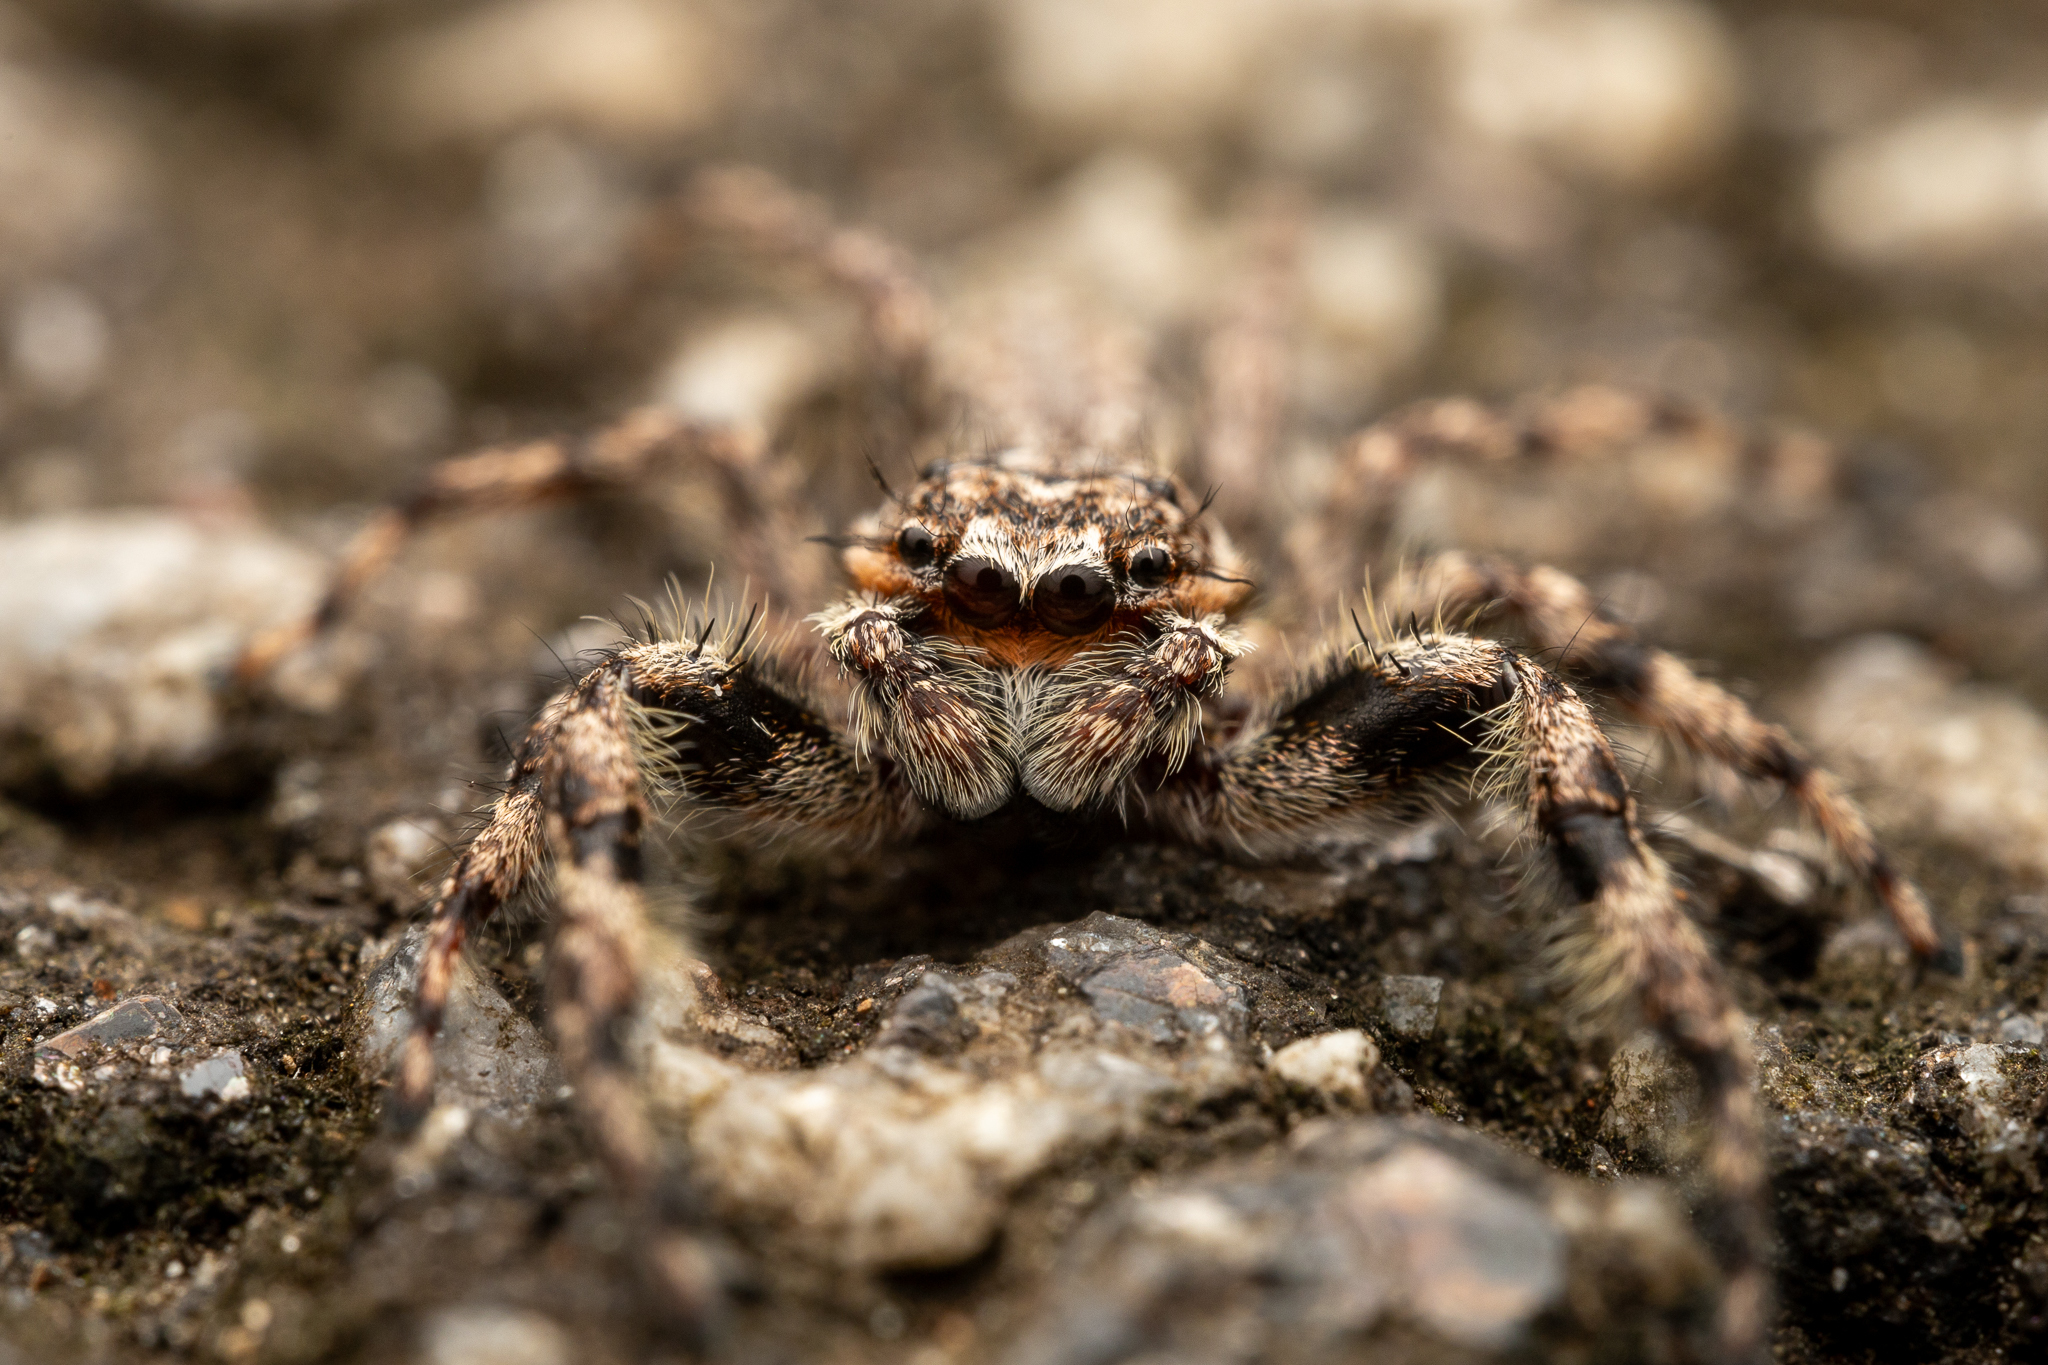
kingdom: Animalia
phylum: Arthropoda
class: Arachnida
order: Araneae
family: Salticidae
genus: Platycryptus
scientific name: Platycryptus undatus
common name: Tan jumping spider
